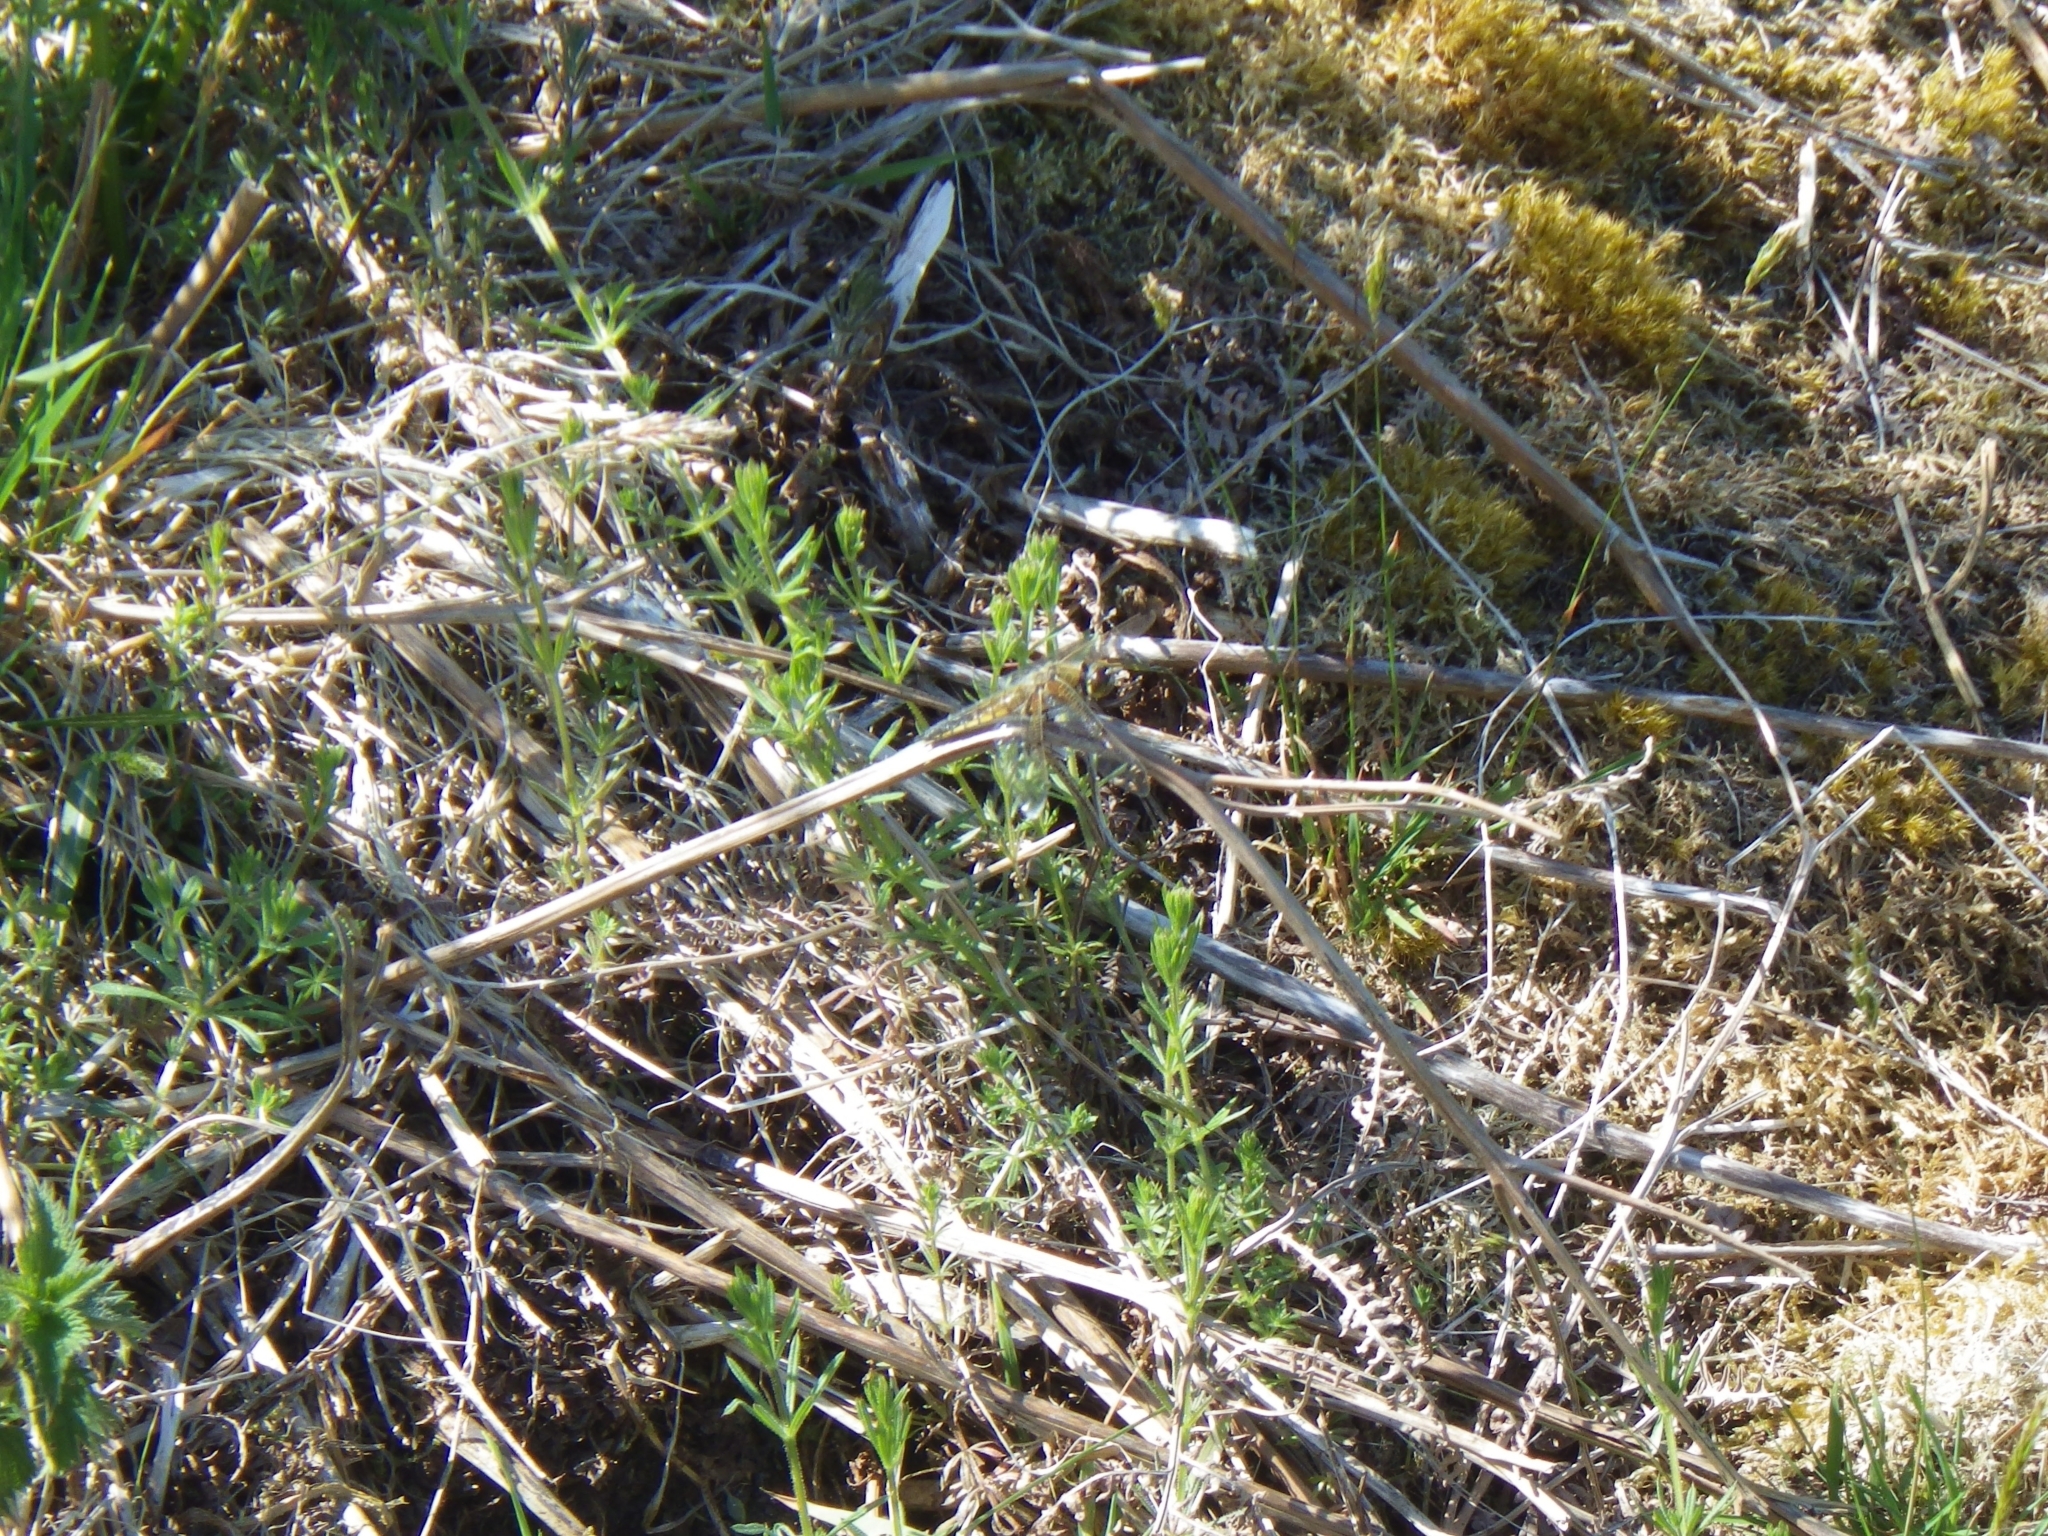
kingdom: Animalia
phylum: Arthropoda
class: Insecta
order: Odonata
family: Libellulidae
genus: Libellula
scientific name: Libellula quadrimaculata
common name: Four-spotted chaser
